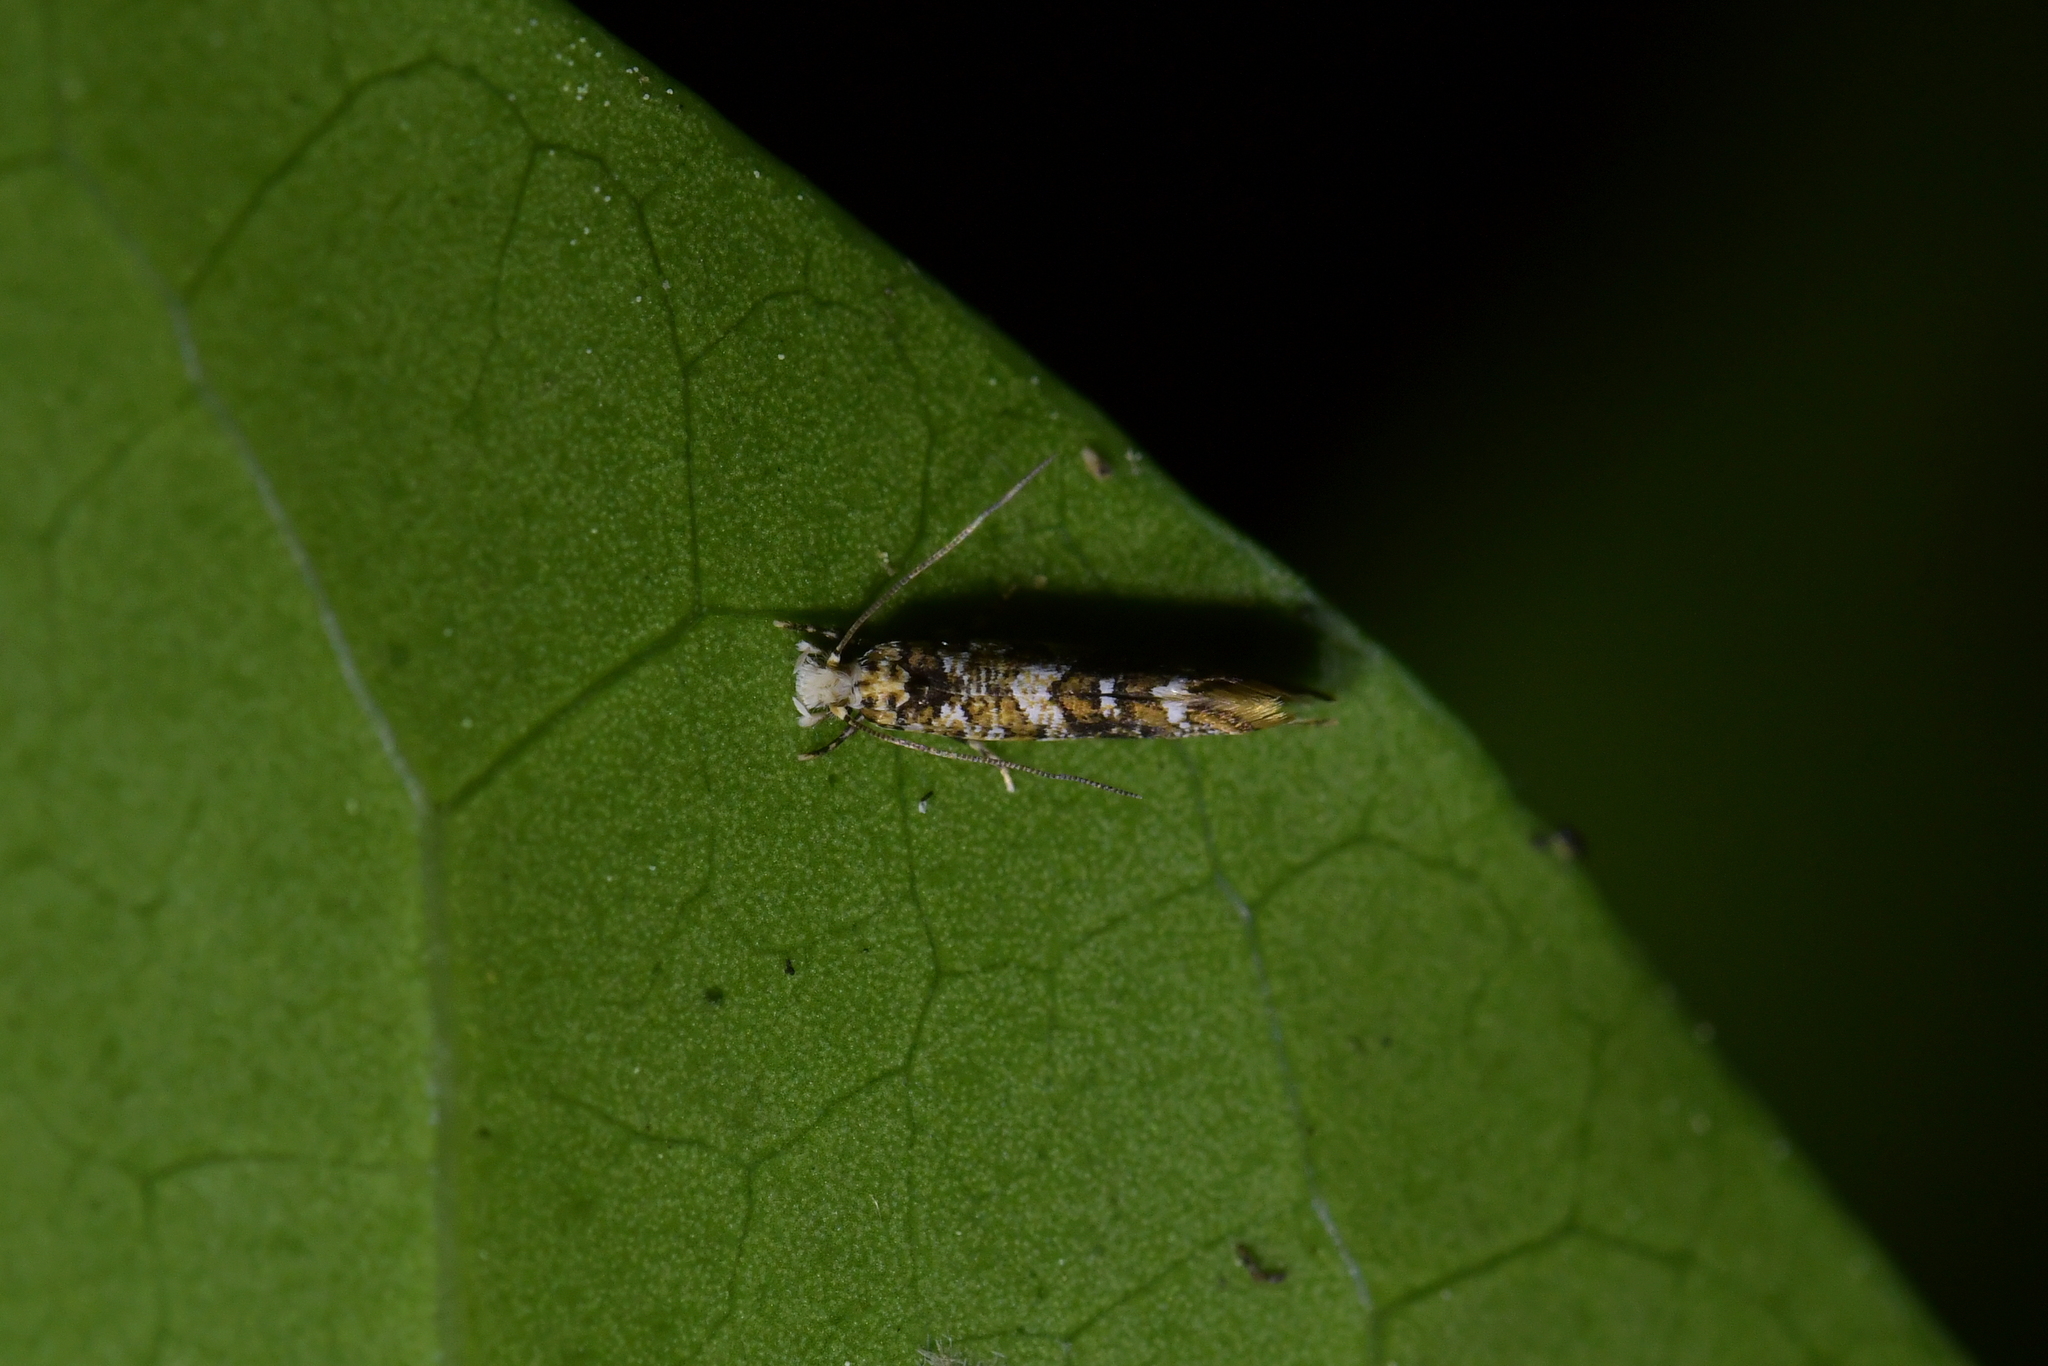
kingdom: Animalia
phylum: Arthropoda
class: Insecta
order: Lepidoptera
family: Tineidae
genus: Eschatotypa
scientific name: Eschatotypa derogatella
